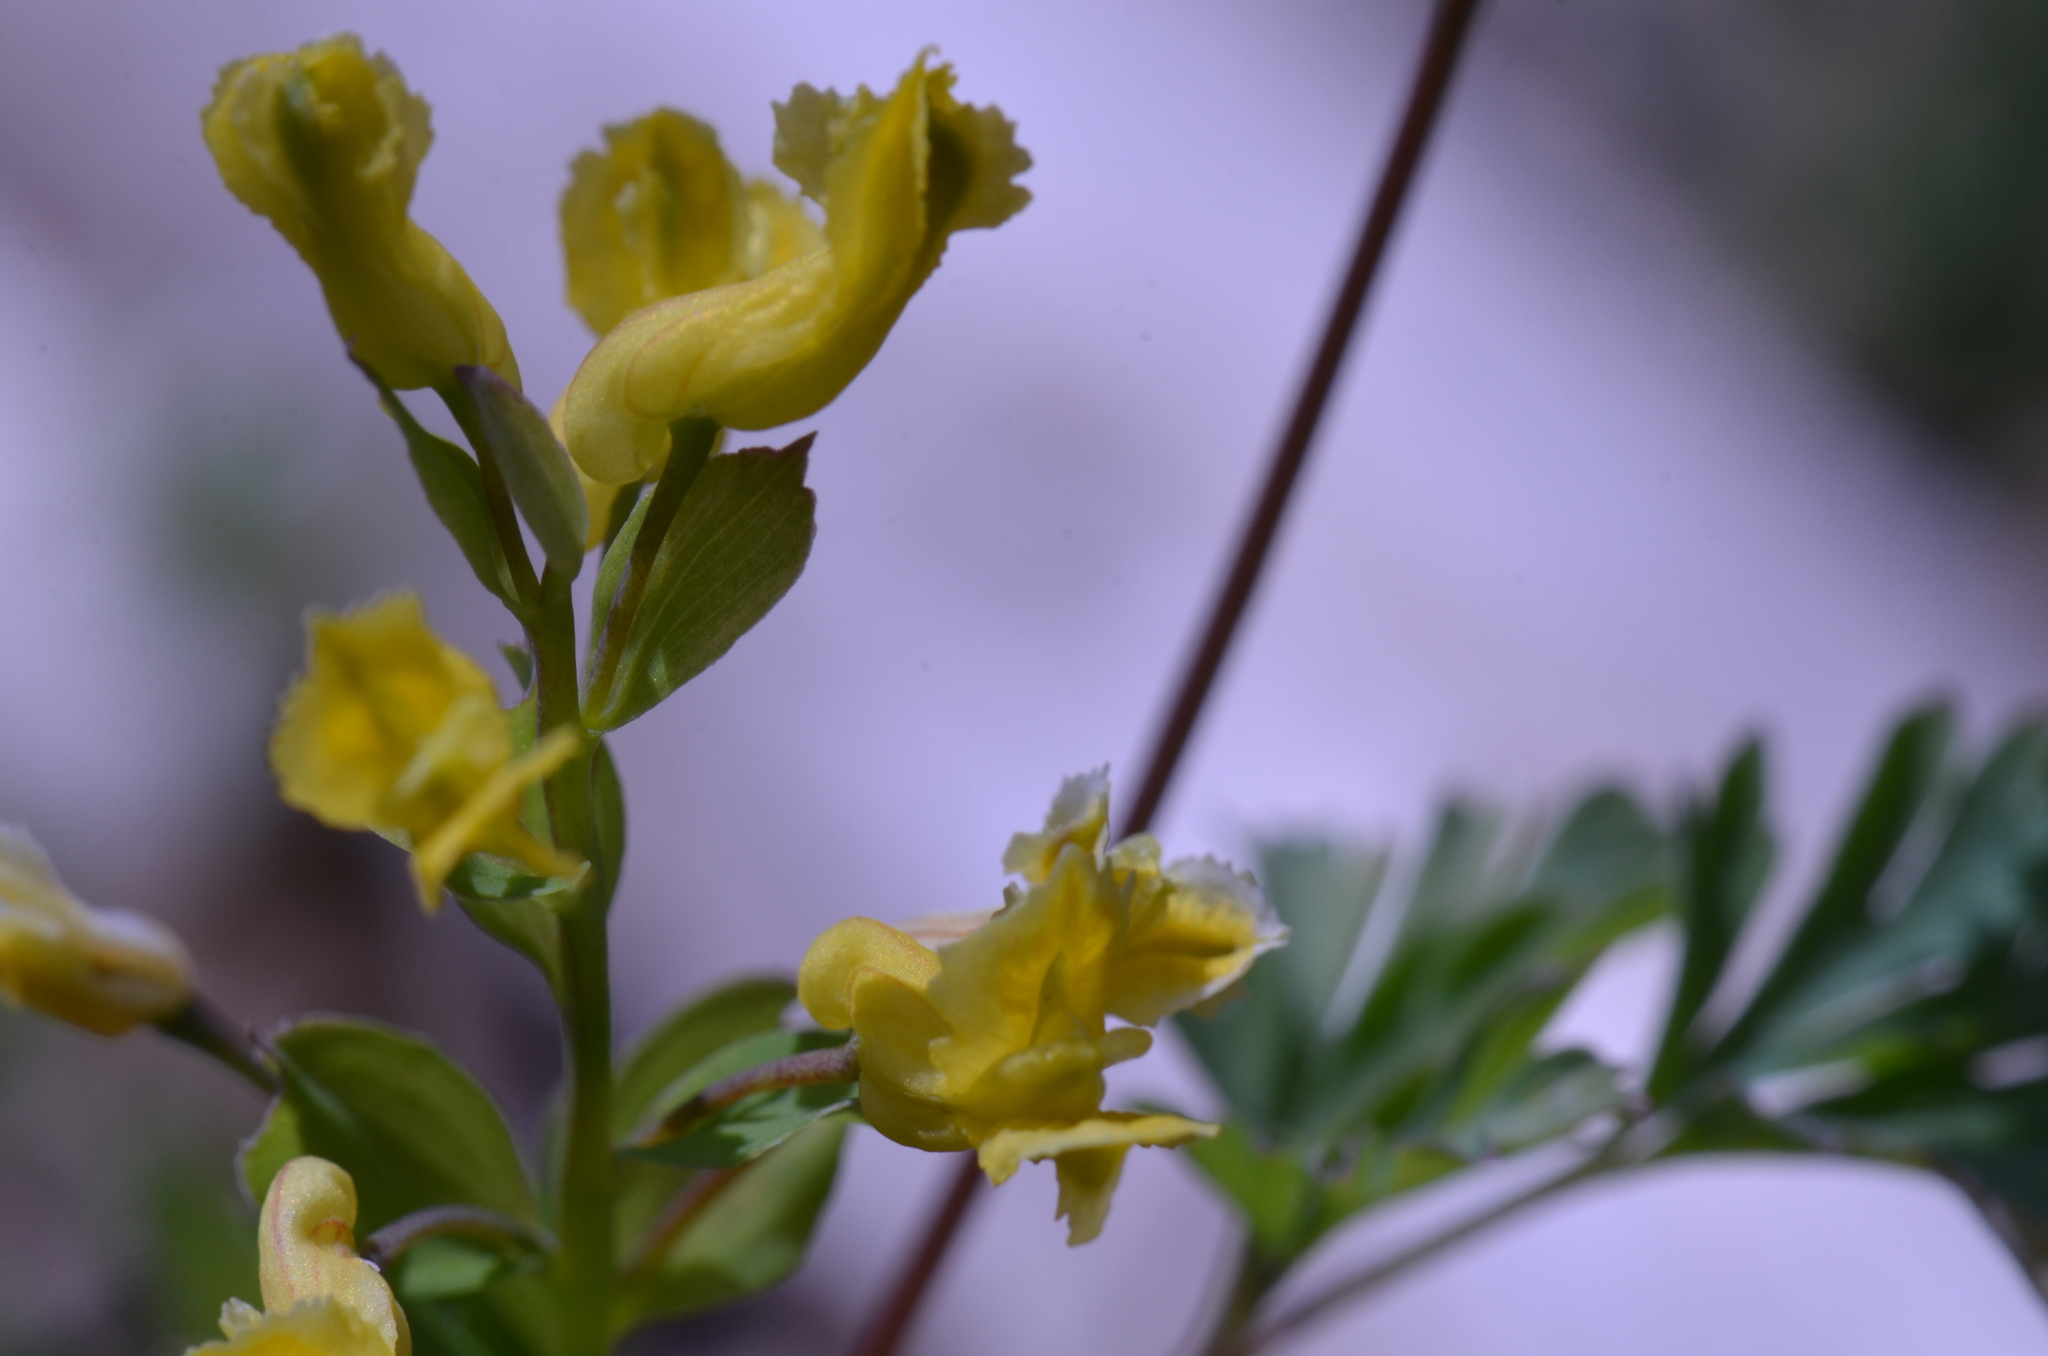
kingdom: Plantae
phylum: Tracheophyta
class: Magnoliopsida
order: Ranunculales
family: Papaveraceae
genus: Corydalis
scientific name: Corydalis flavula
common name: Yellow corydalis
